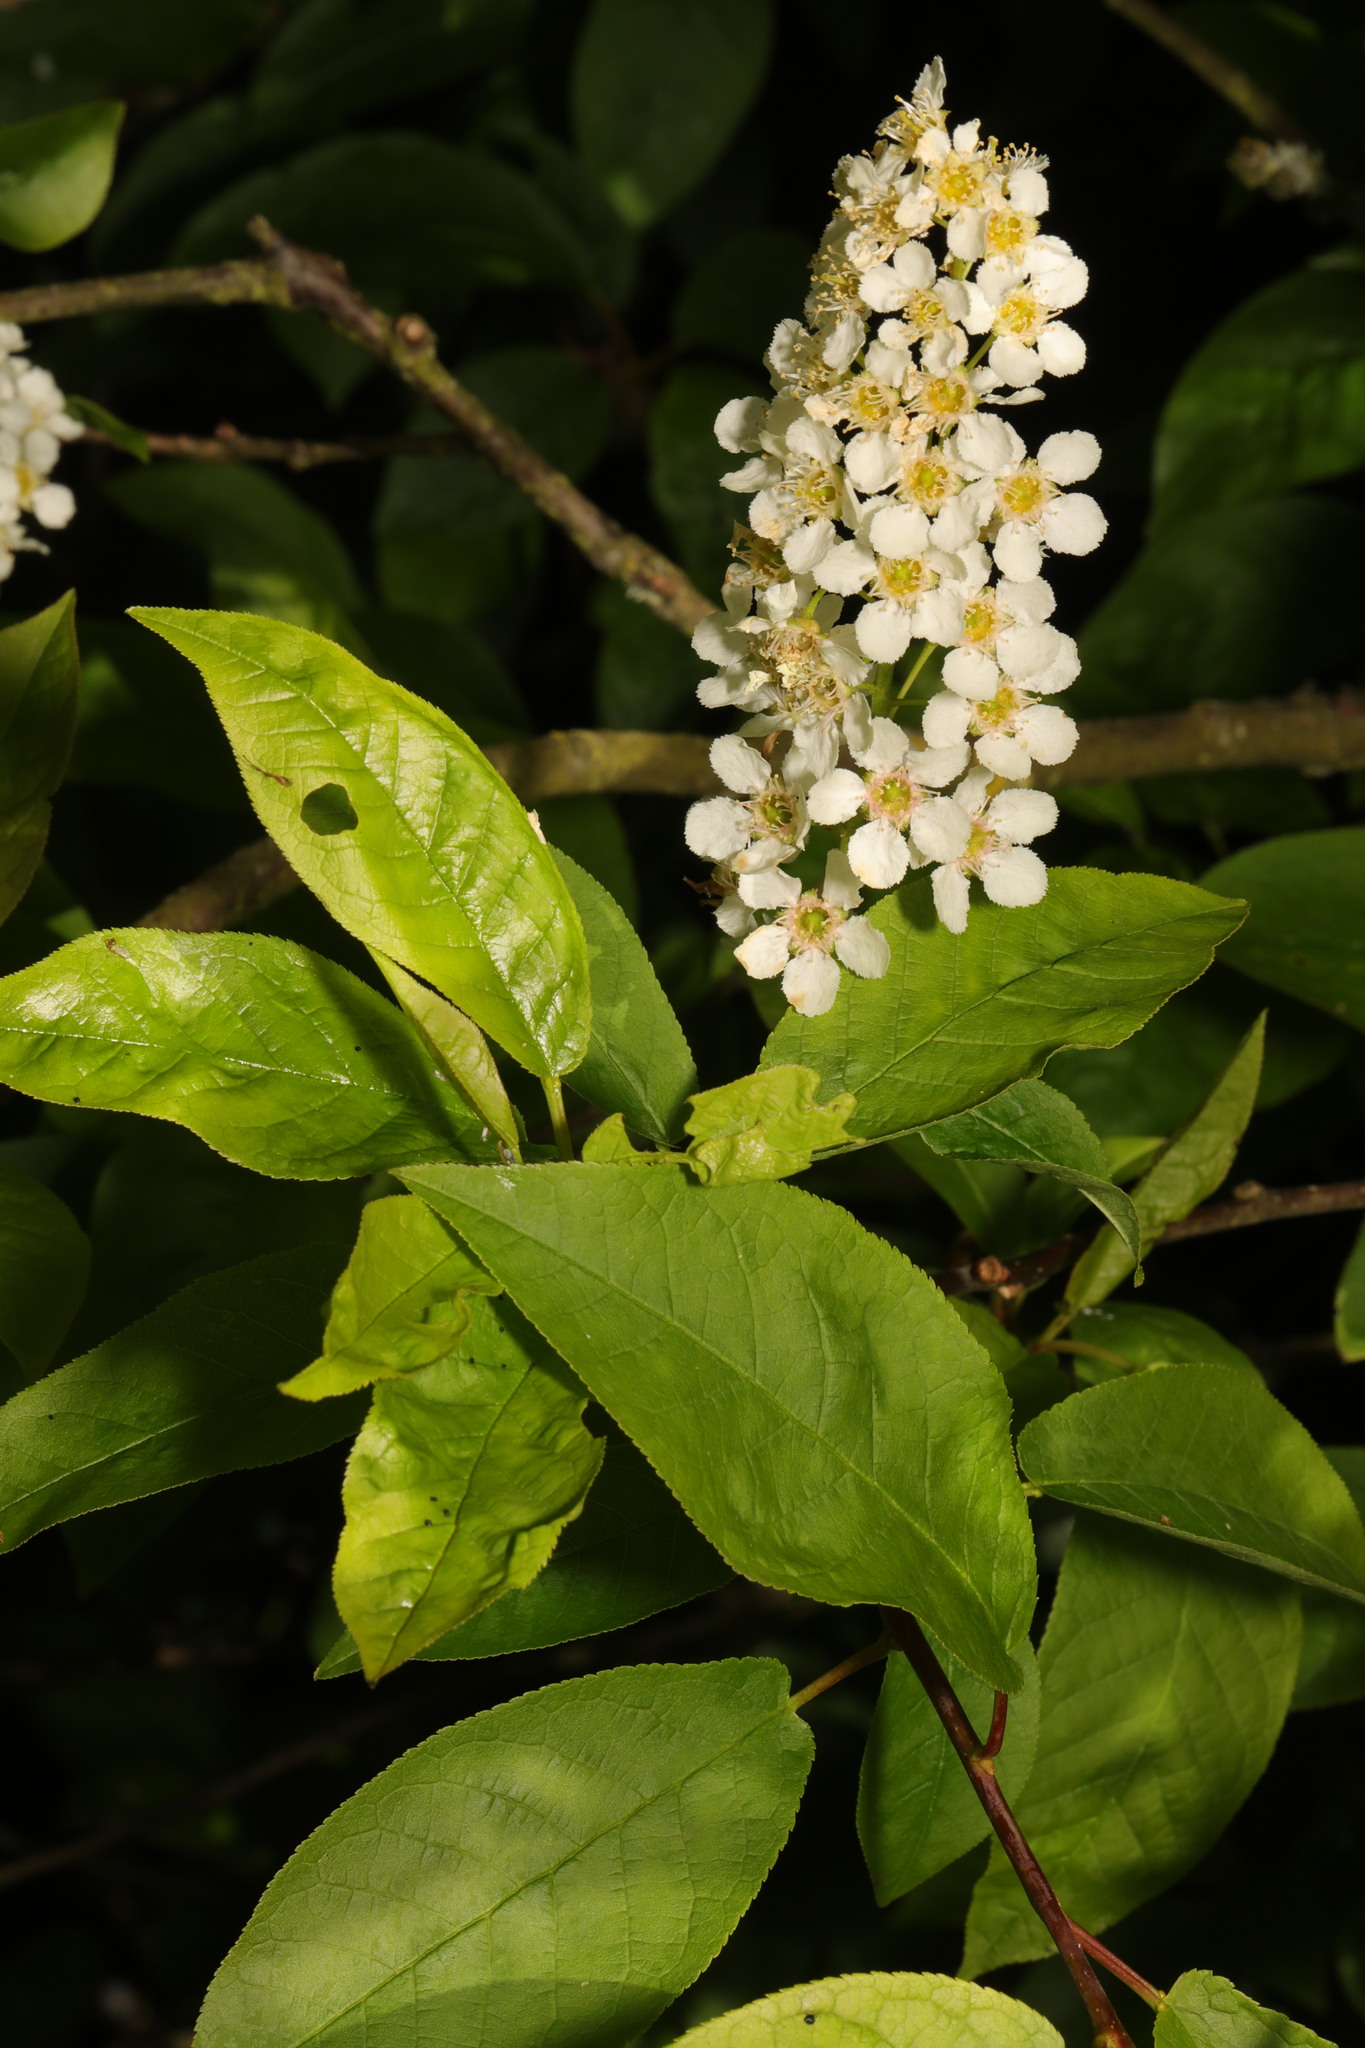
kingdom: Plantae
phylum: Tracheophyta
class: Magnoliopsida
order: Rosales
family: Rosaceae
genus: Prunus
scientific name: Prunus padus
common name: Bird cherry
